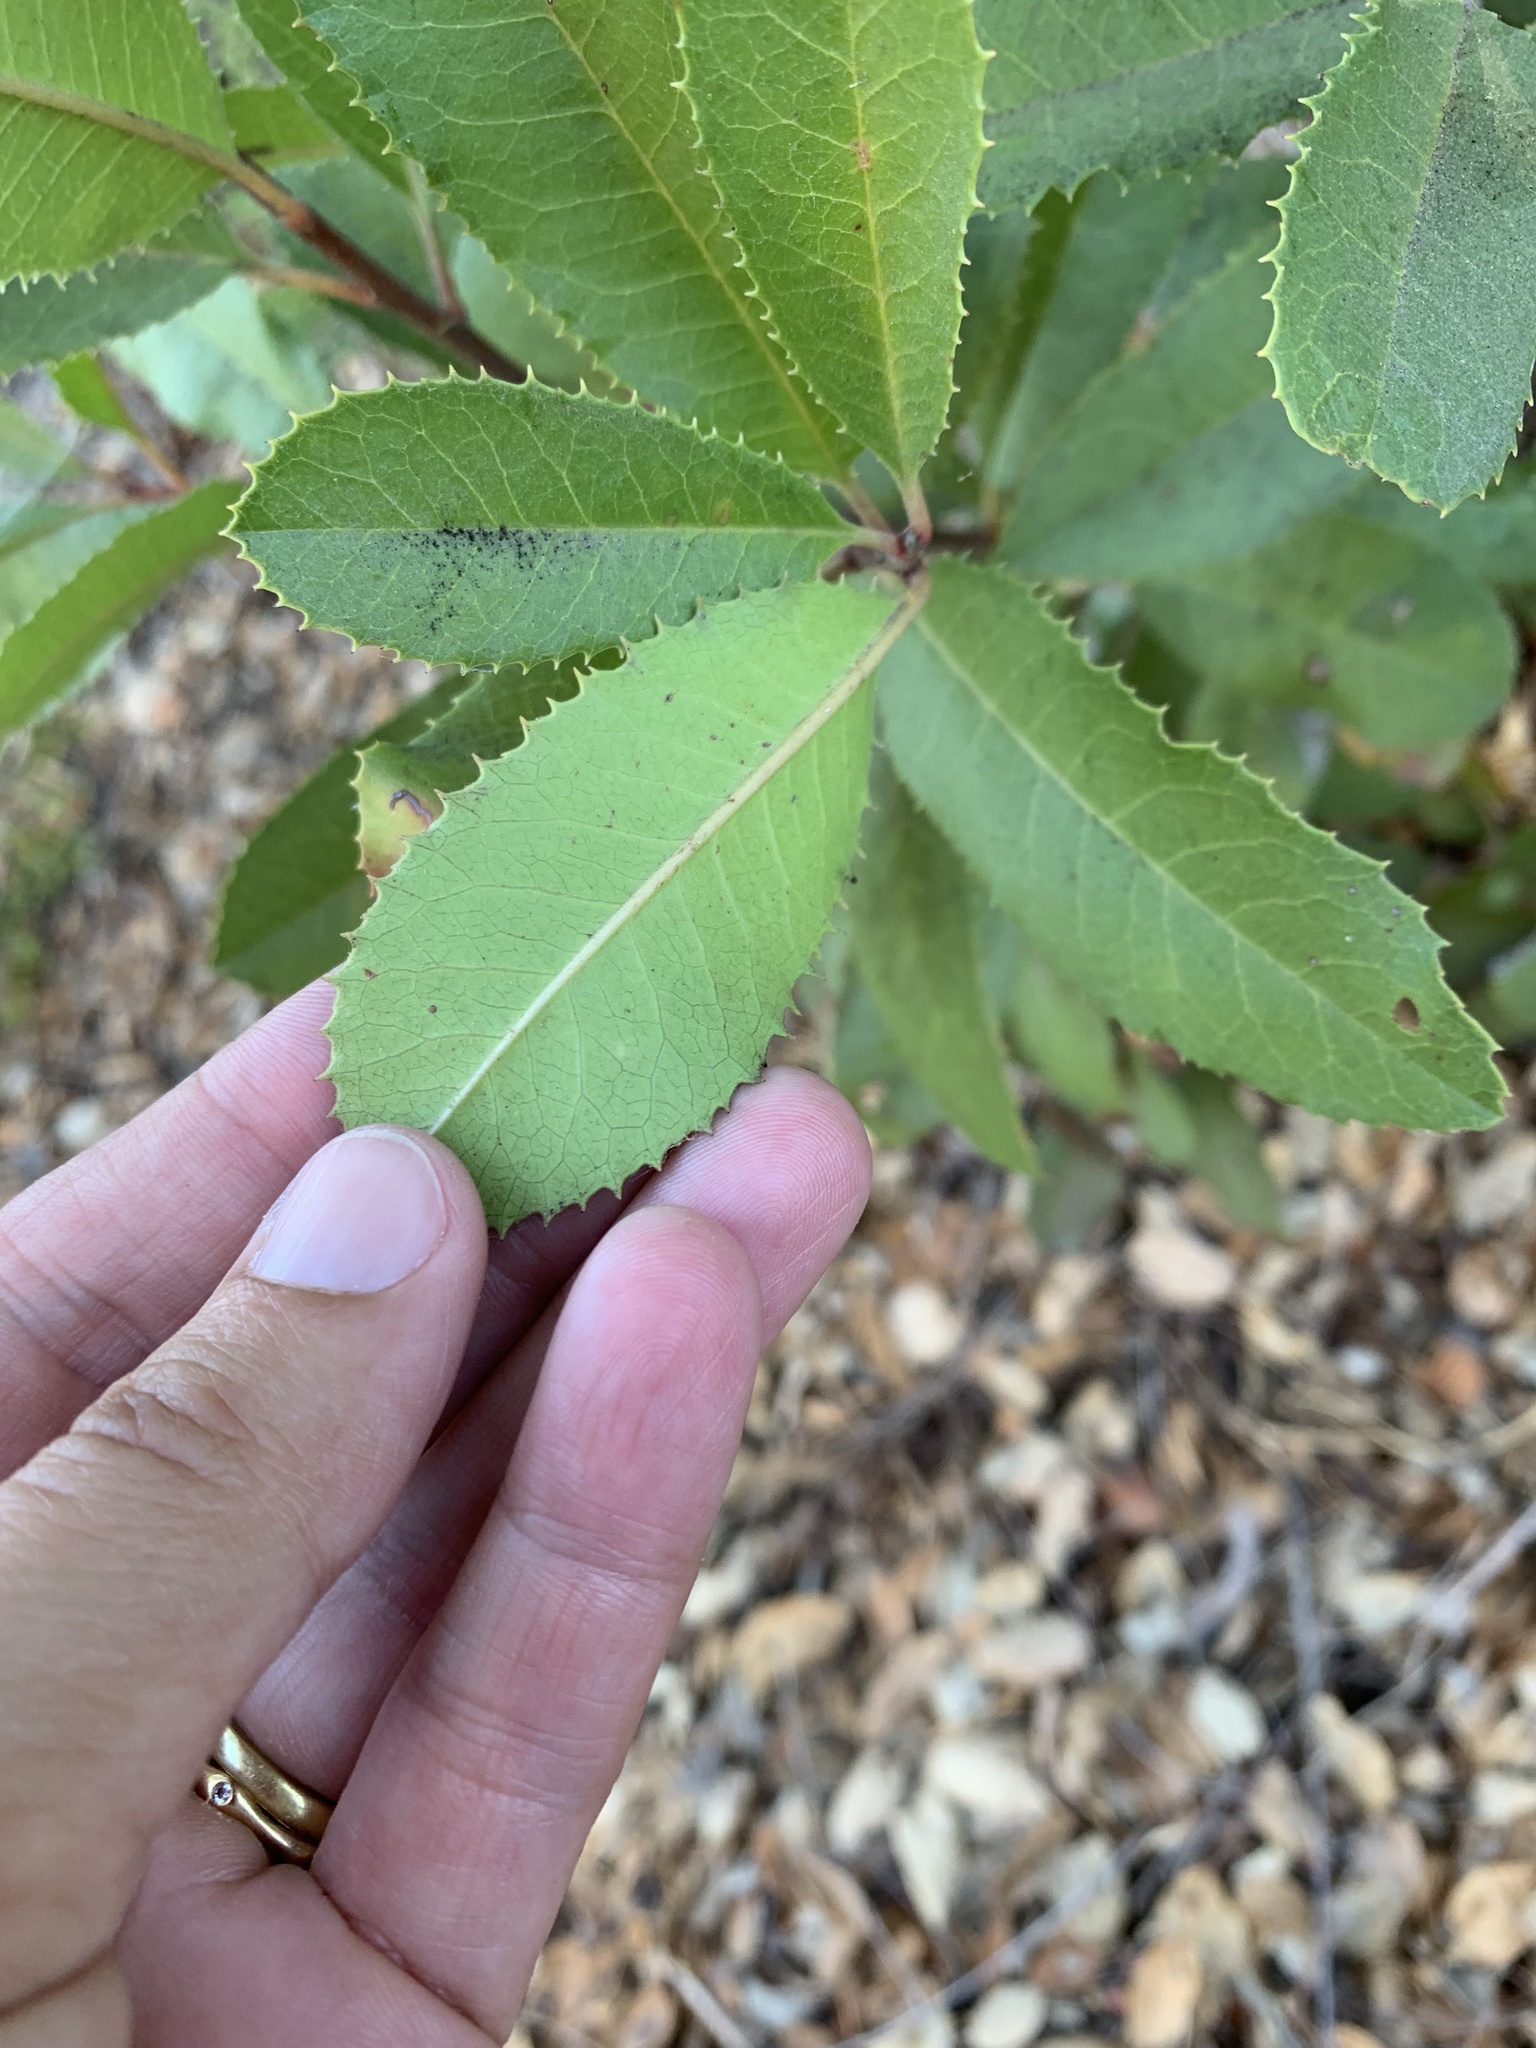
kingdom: Plantae
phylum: Tracheophyta
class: Magnoliopsida
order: Rosales
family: Rosaceae
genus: Heteromeles
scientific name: Heteromeles arbutifolia
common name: California-holly
